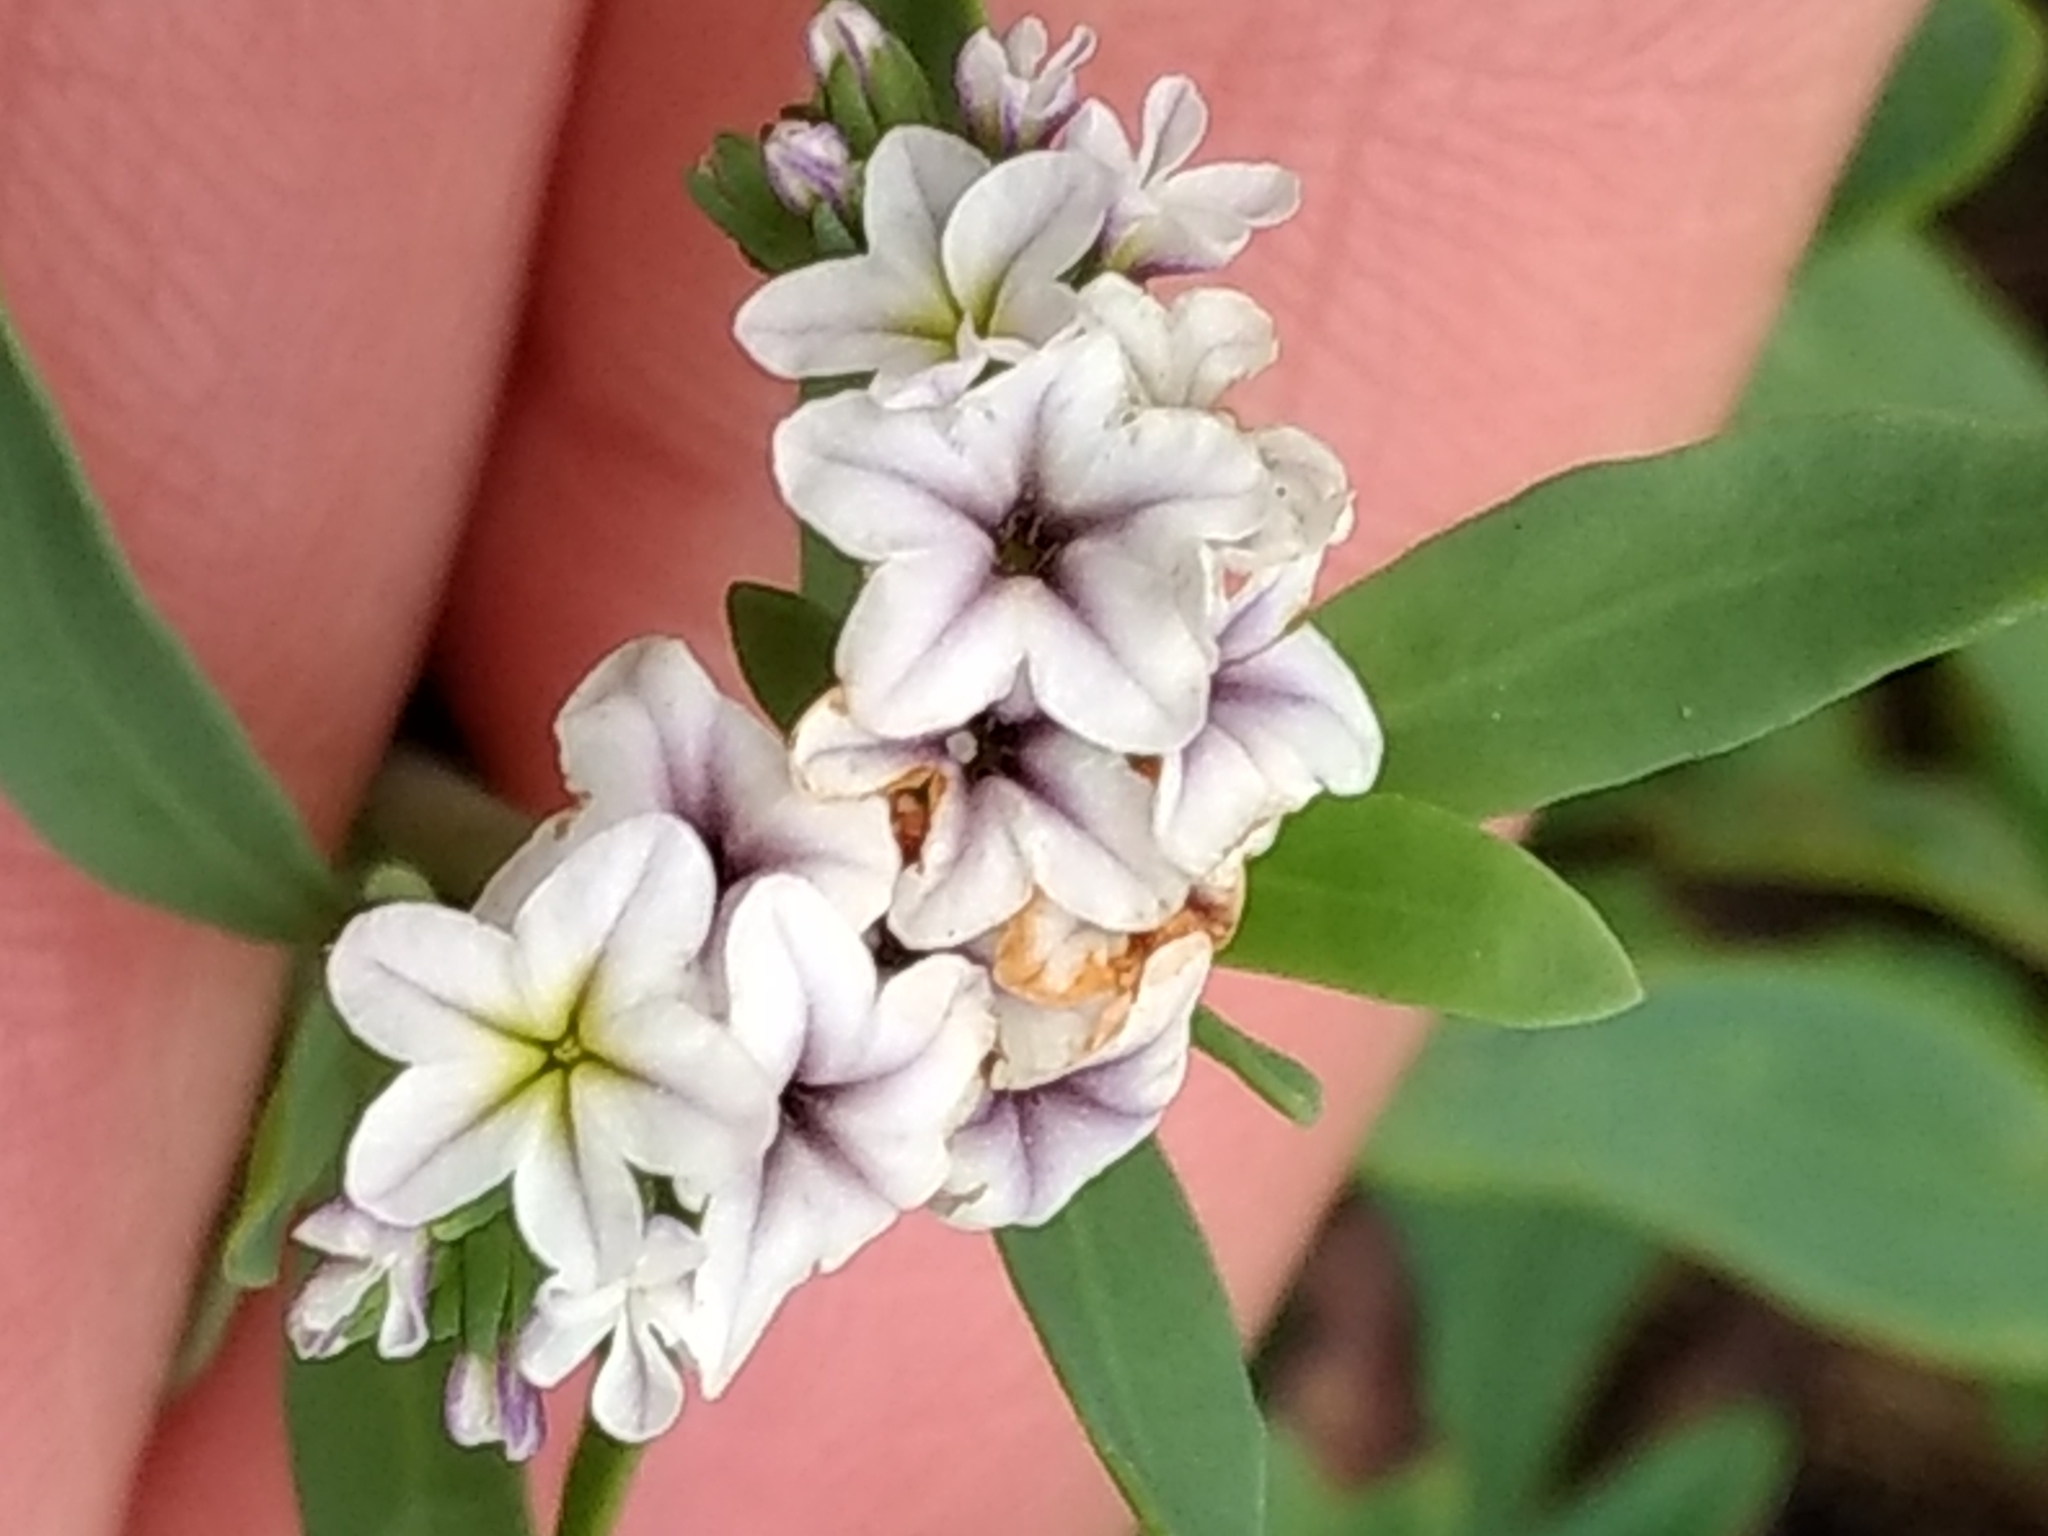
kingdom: Plantae
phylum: Tracheophyta
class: Magnoliopsida
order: Boraginales
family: Heliotropiaceae
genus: Heliotropium
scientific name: Heliotropium curassavicum
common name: Seaside heliotrope
